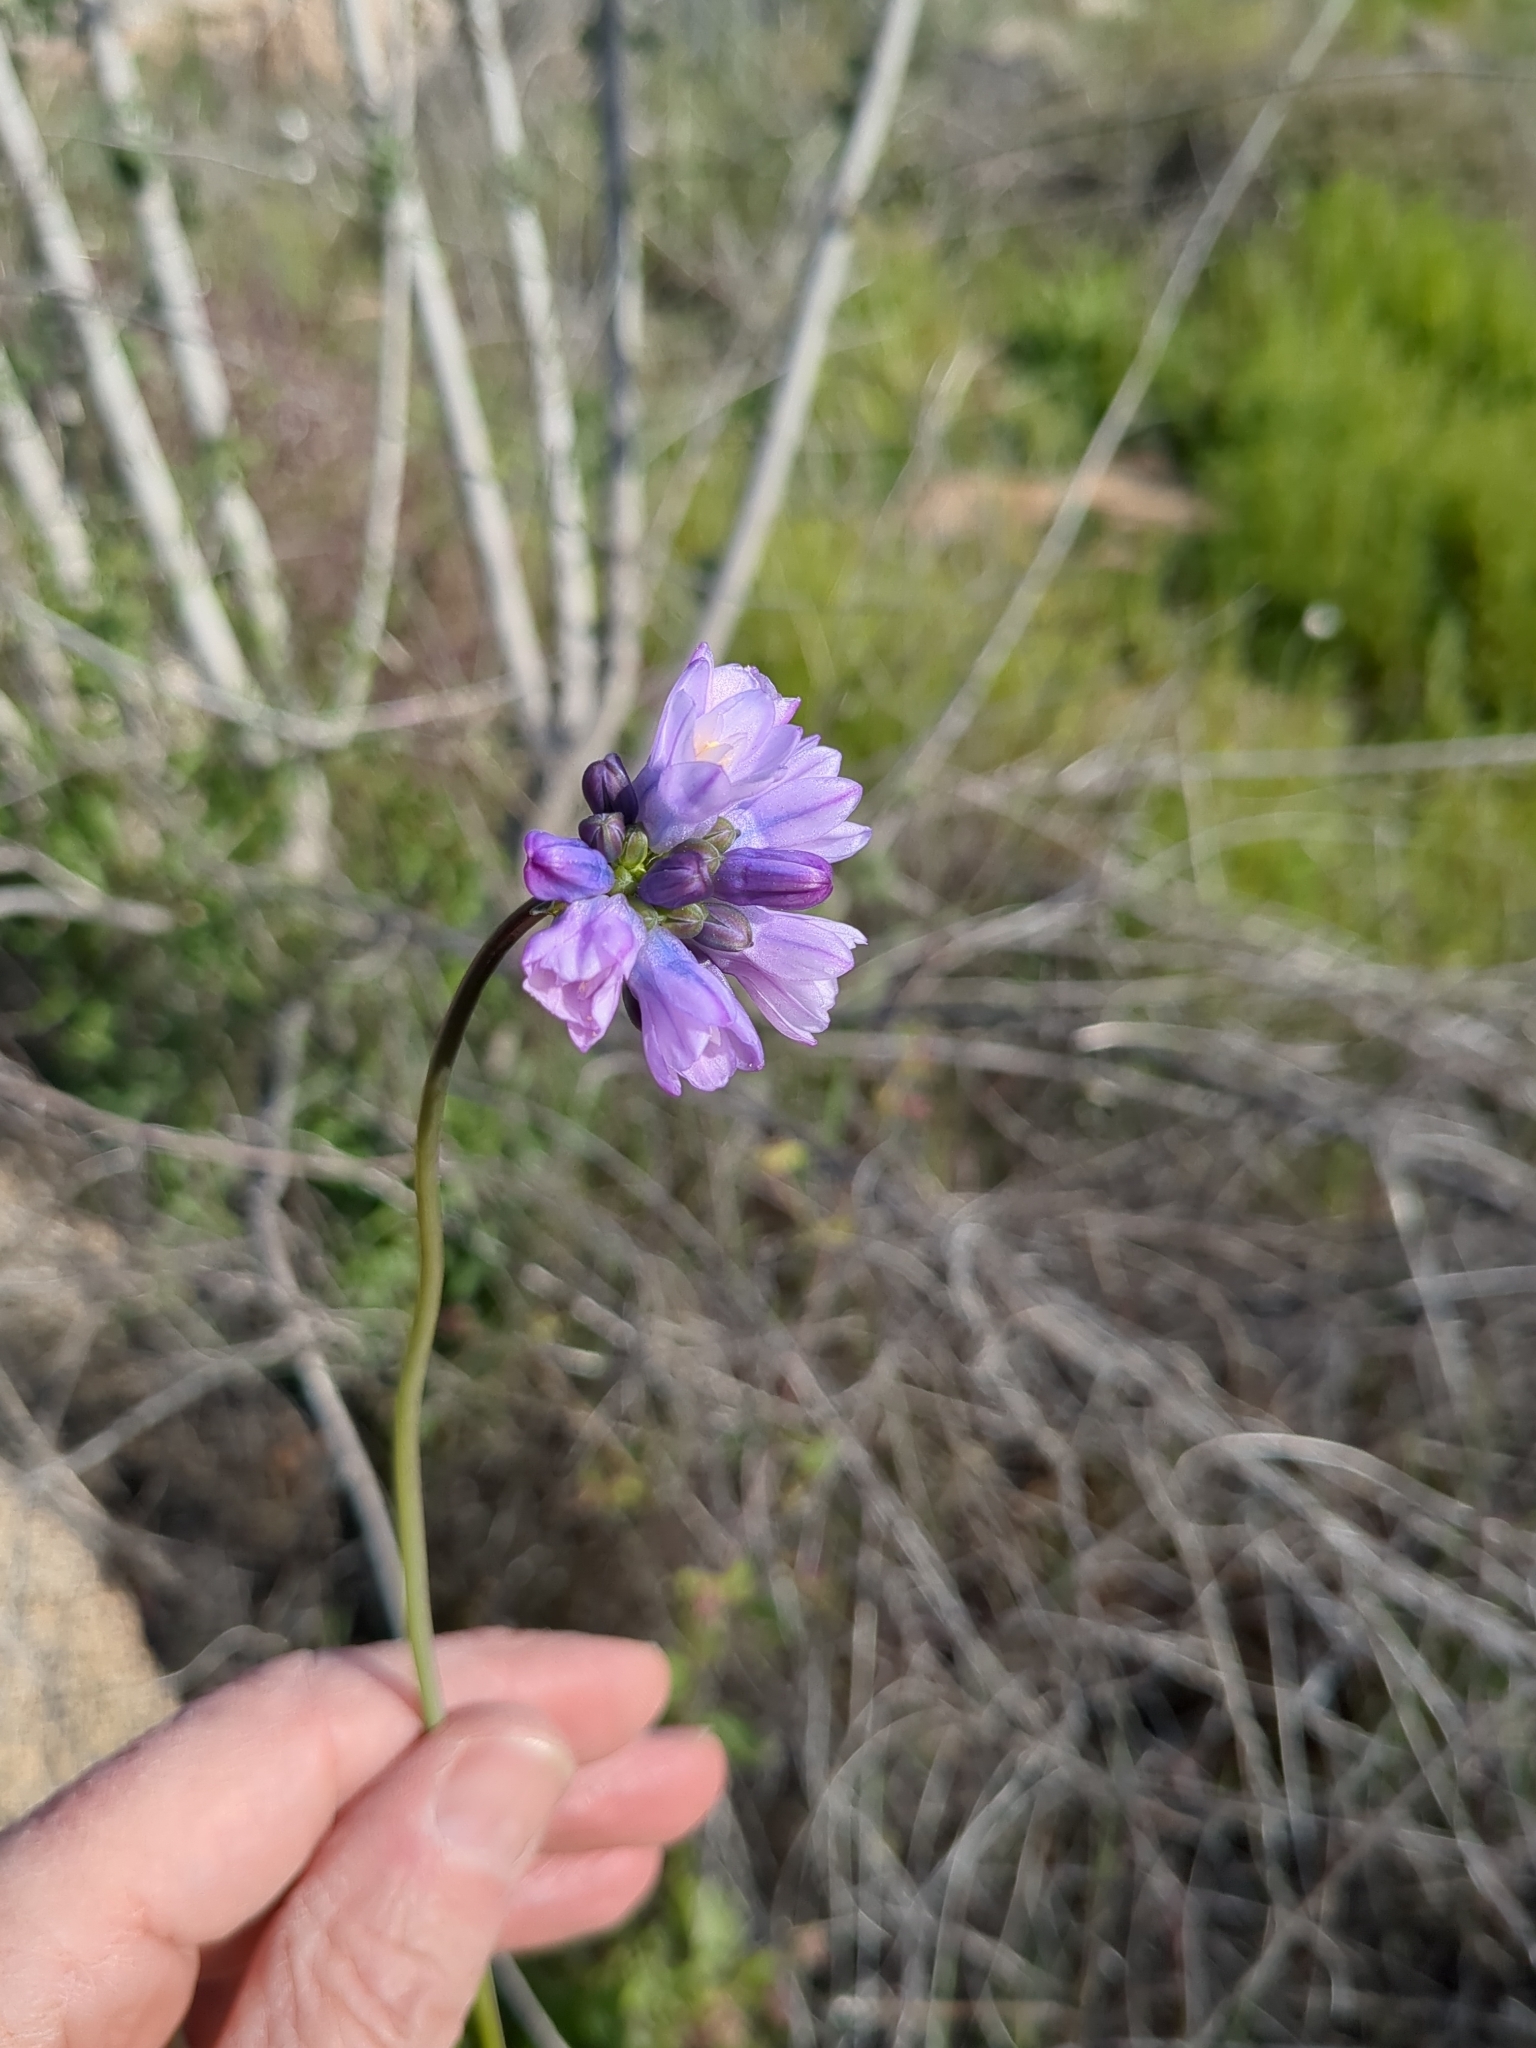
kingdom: Plantae
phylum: Tracheophyta
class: Liliopsida
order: Asparagales
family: Asparagaceae
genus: Dipterostemon
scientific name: Dipterostemon capitatus
